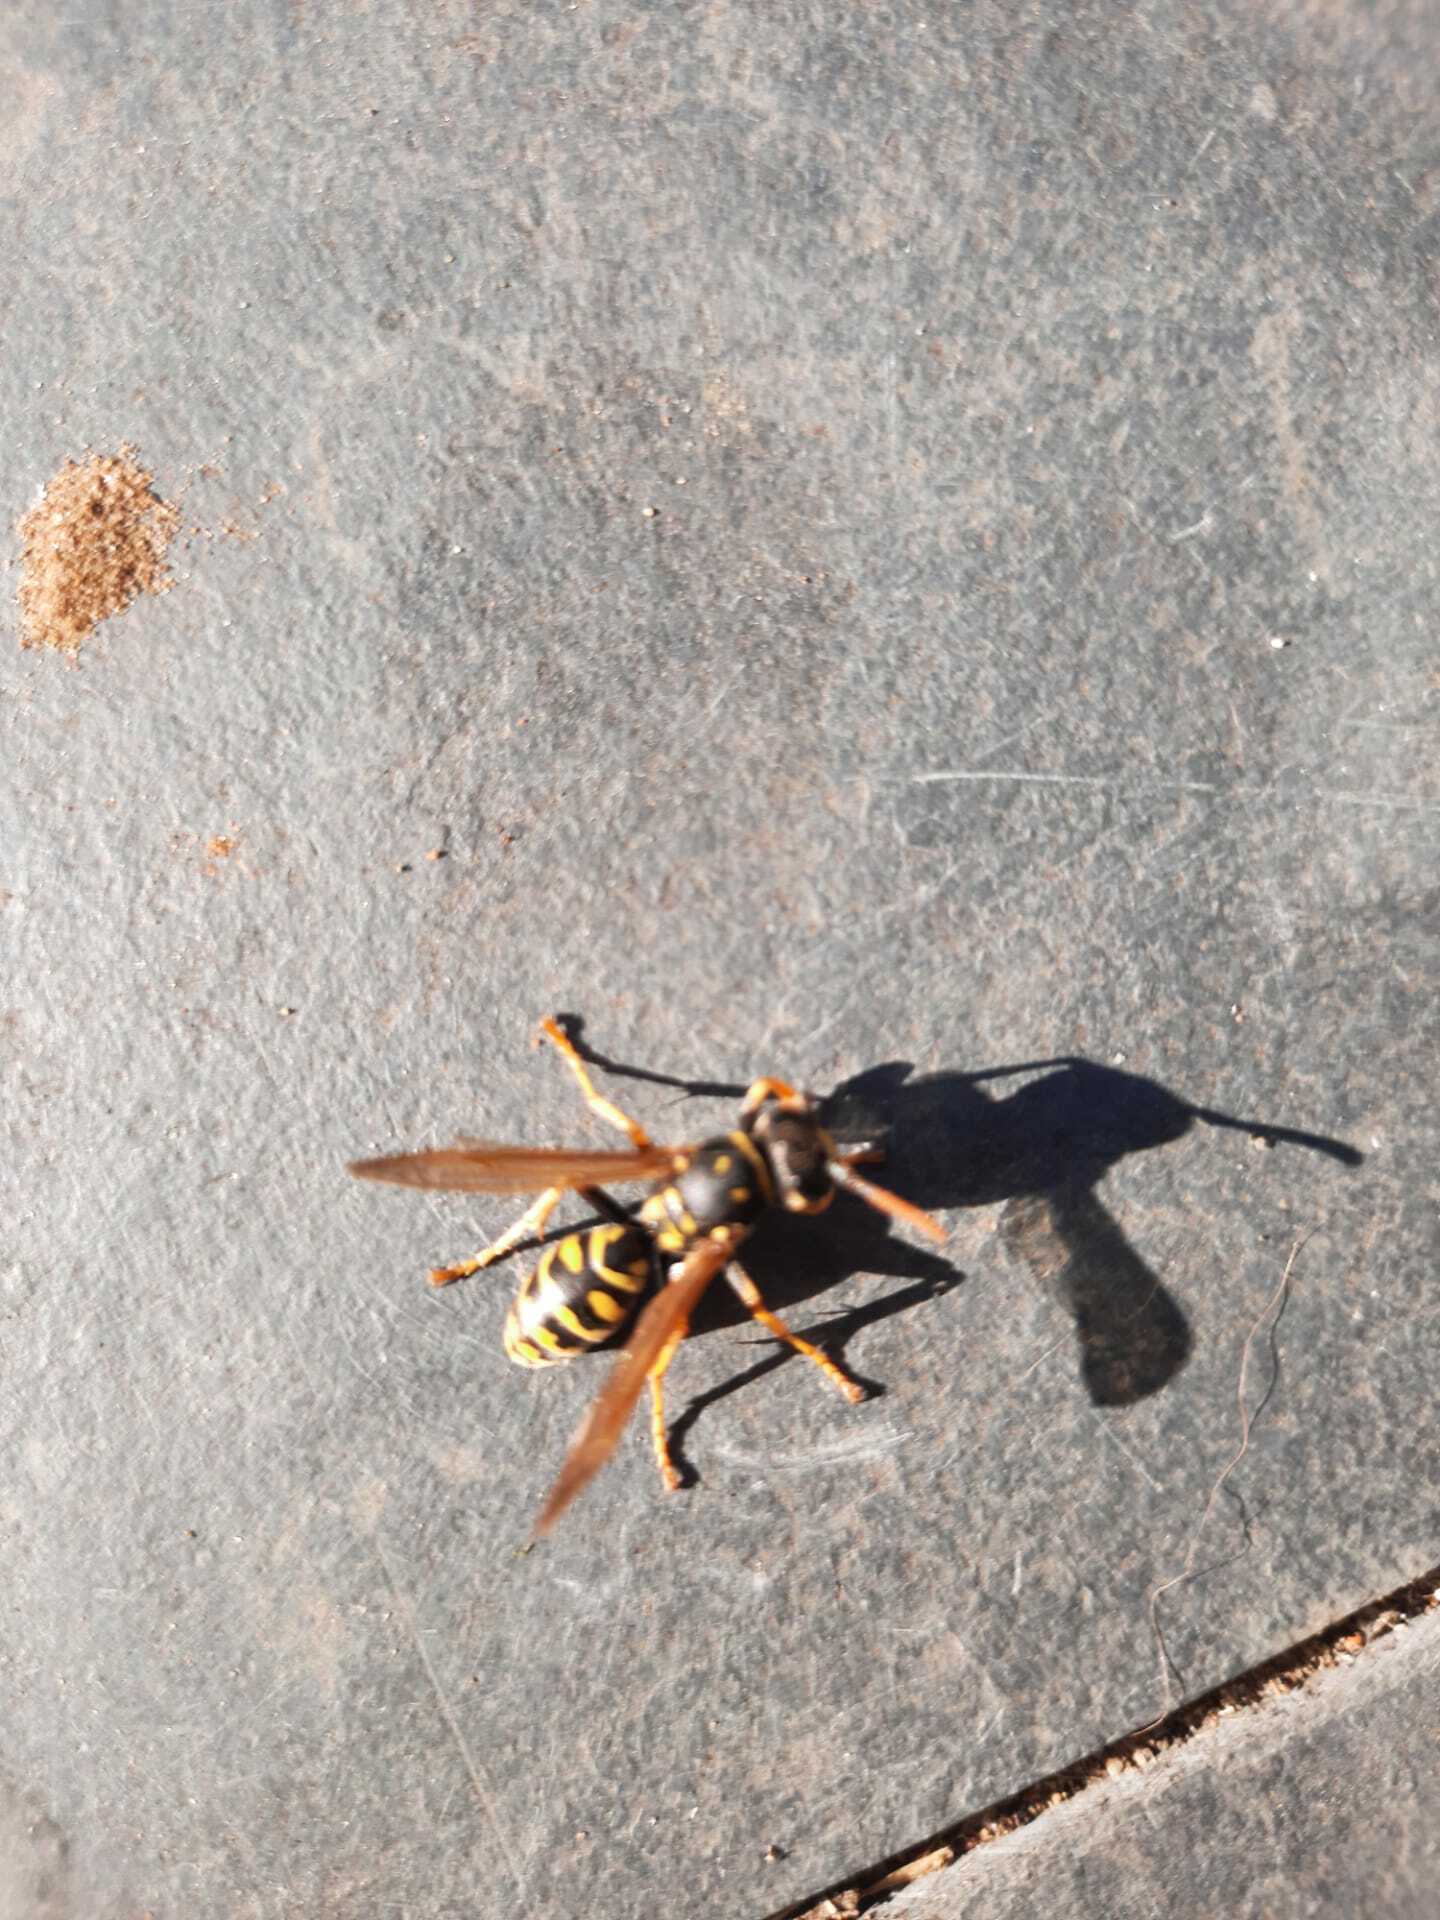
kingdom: Animalia
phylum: Arthropoda
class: Insecta
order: Hymenoptera
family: Eumenidae
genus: Polistes
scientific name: Polistes dominula
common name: Paper wasp
